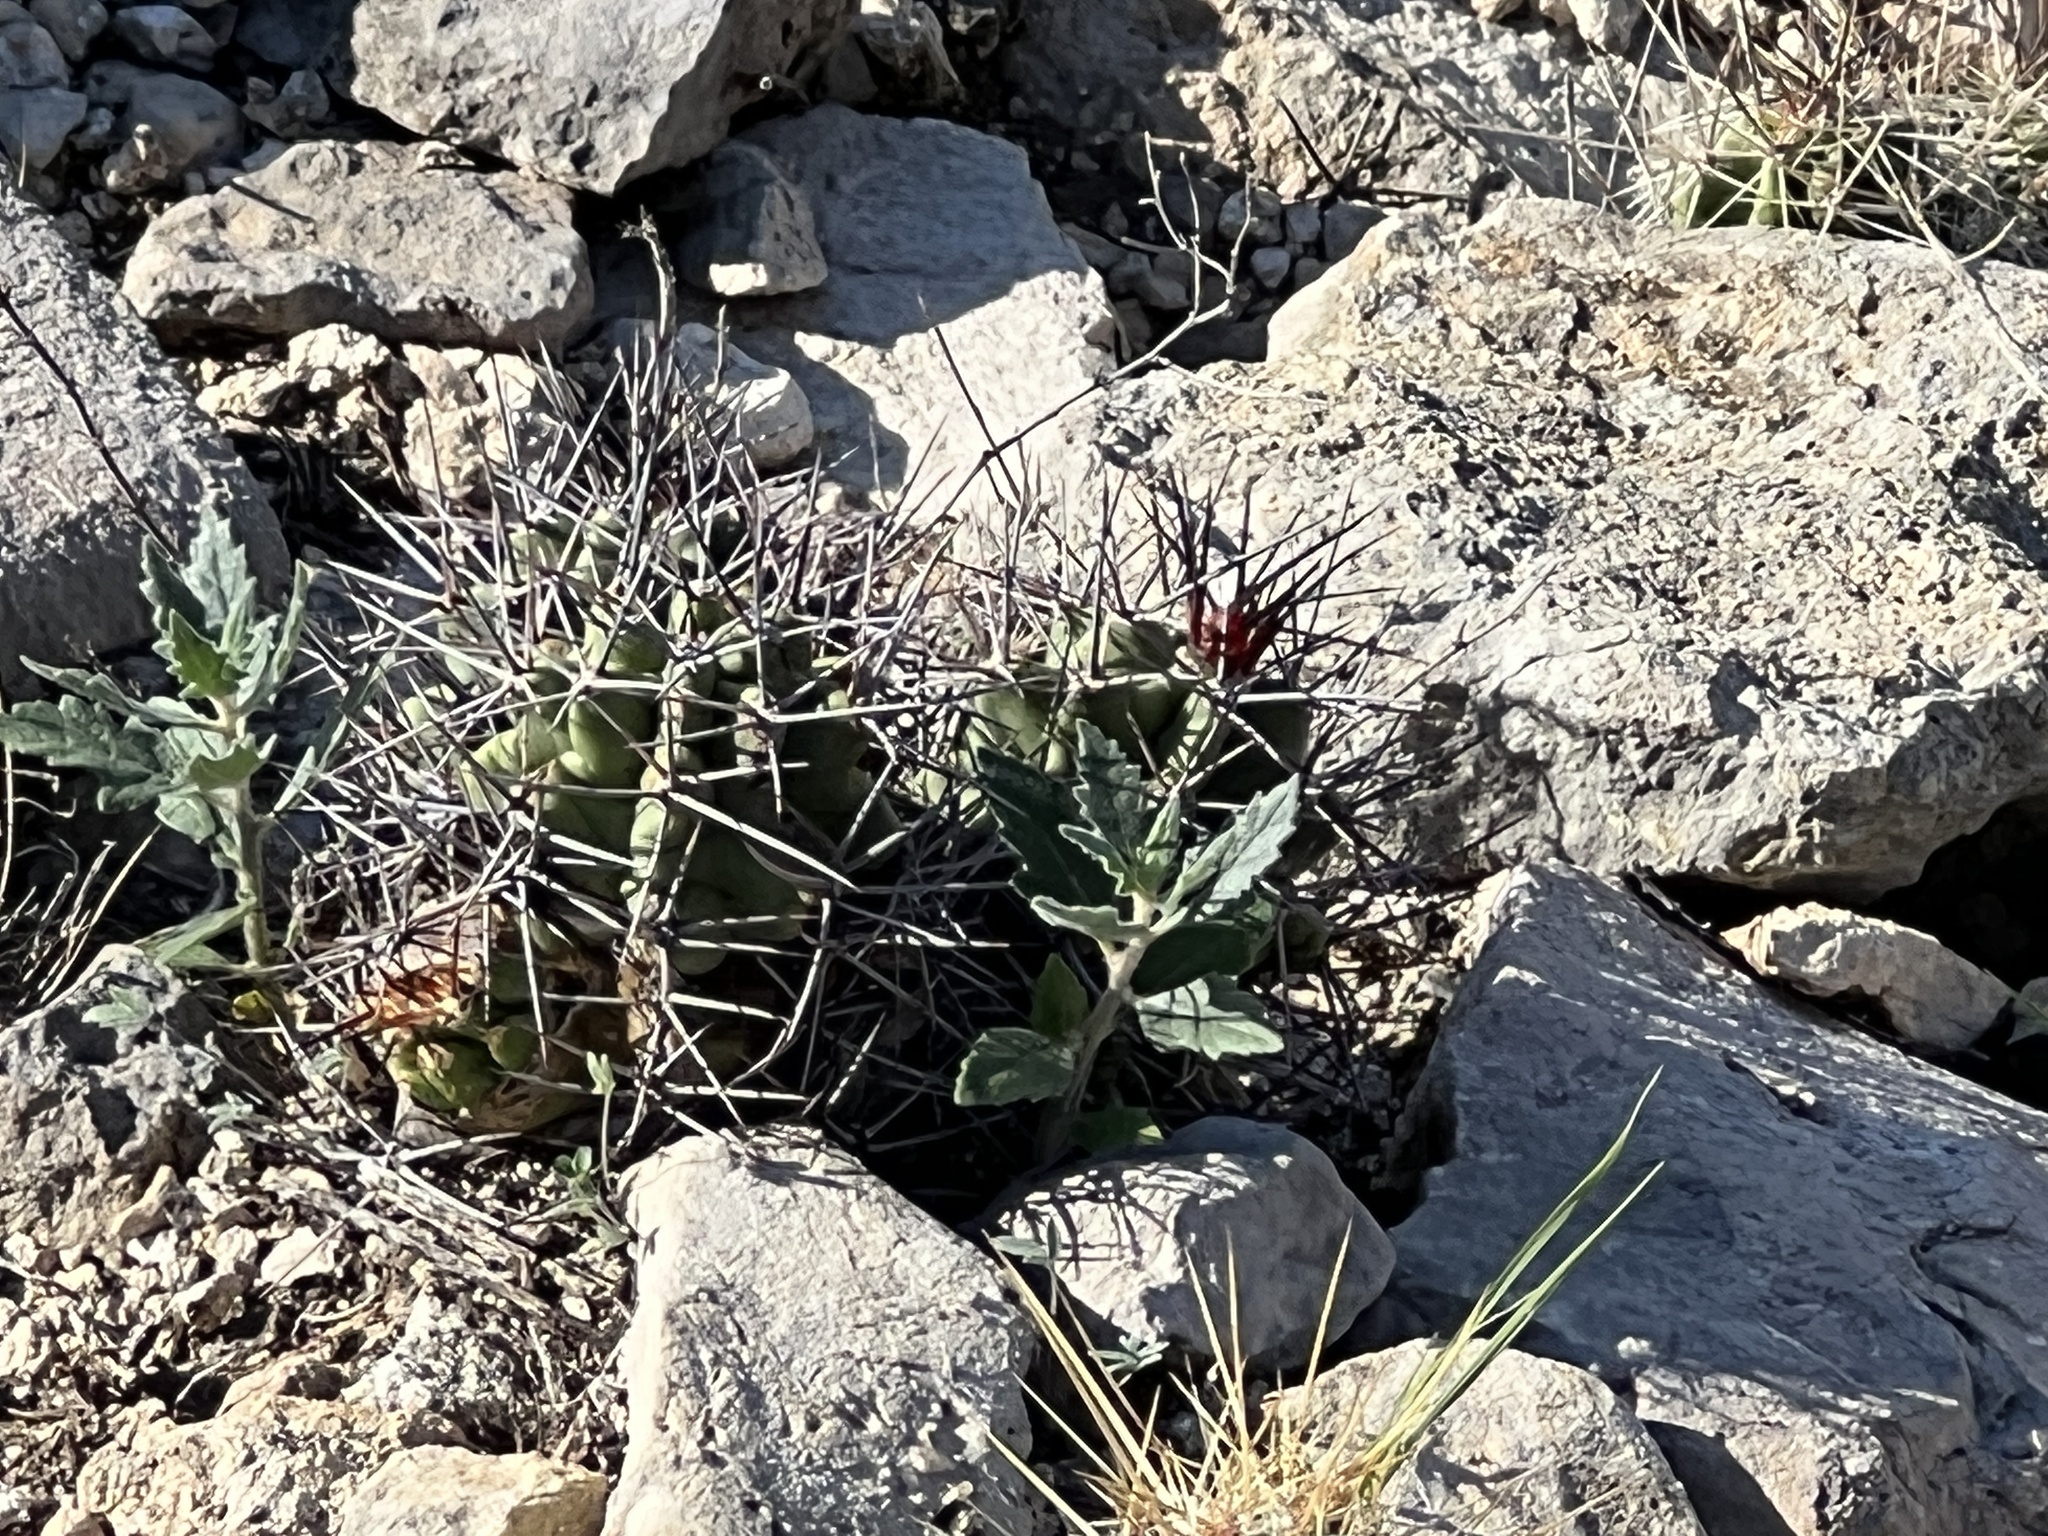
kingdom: Plantae
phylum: Tracheophyta
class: Magnoliopsida
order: Caryophyllales
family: Cactaceae
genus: Echinocereus
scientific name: Echinocereus coccineus
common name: Scarlet hedgehog cactus
